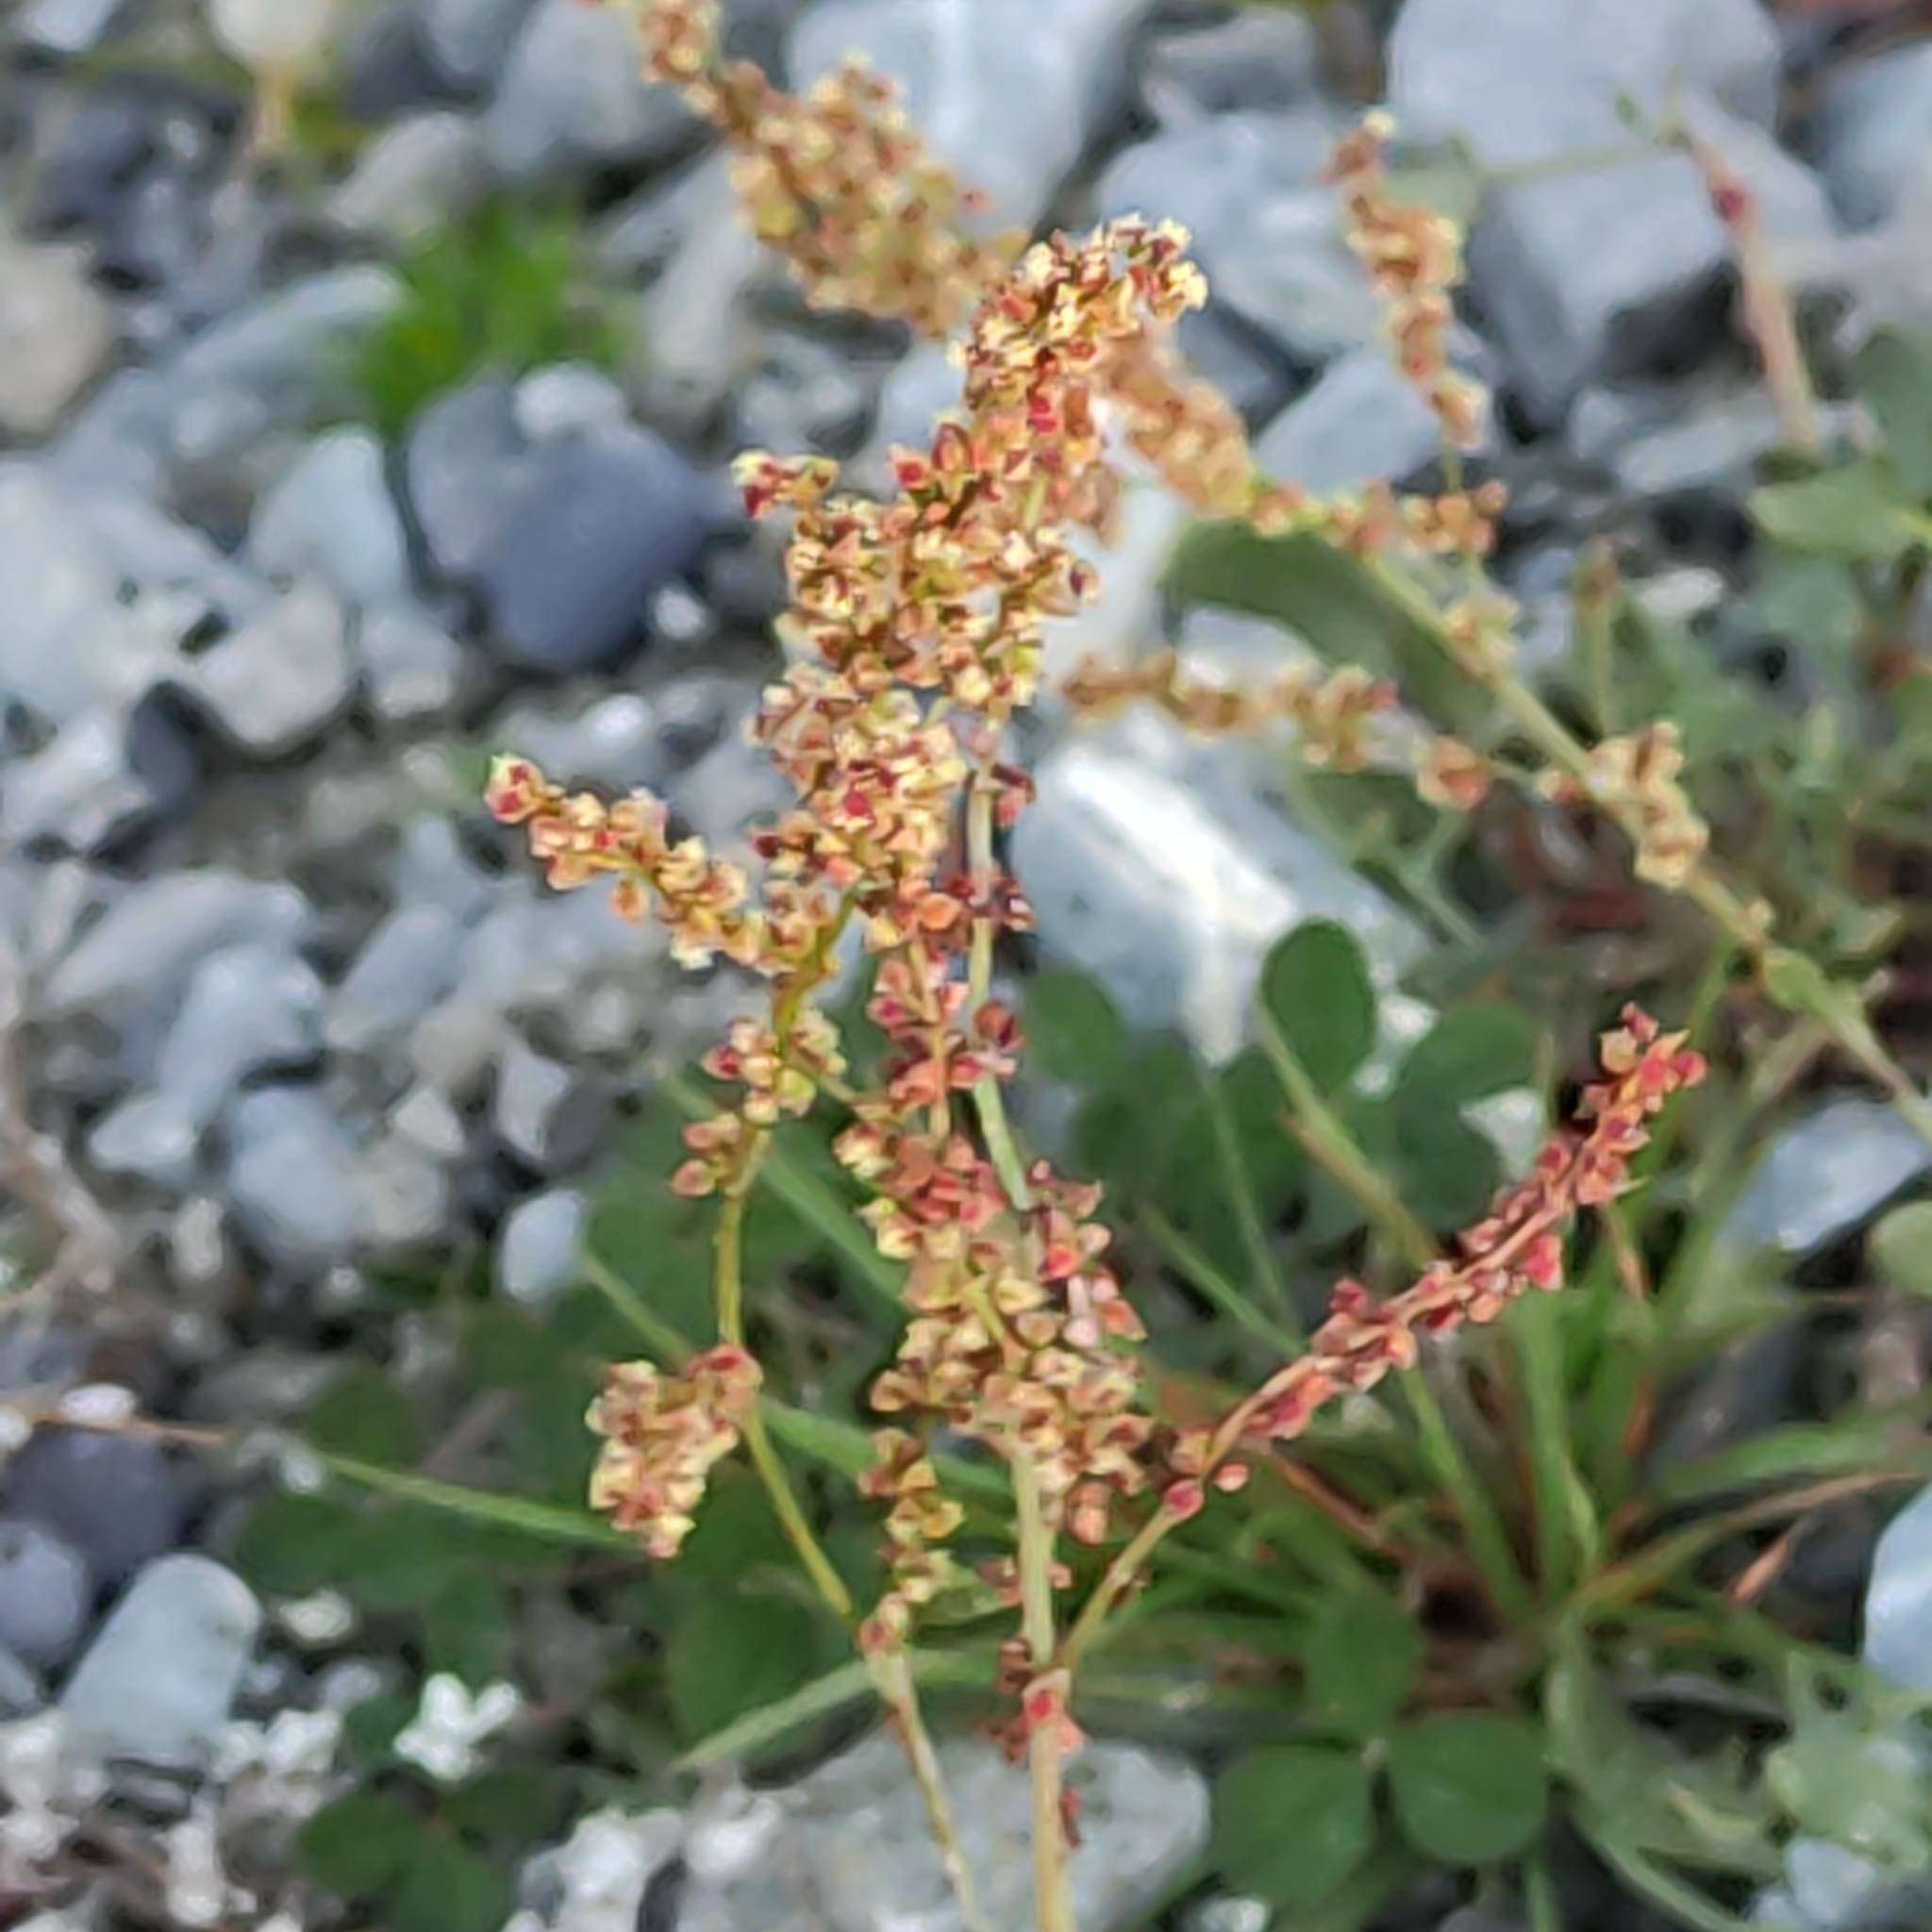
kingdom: Plantae
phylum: Tracheophyta
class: Magnoliopsida
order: Caryophyllales
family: Polygonaceae
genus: Rumex
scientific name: Rumex acetosella
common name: Common sheep sorrel
